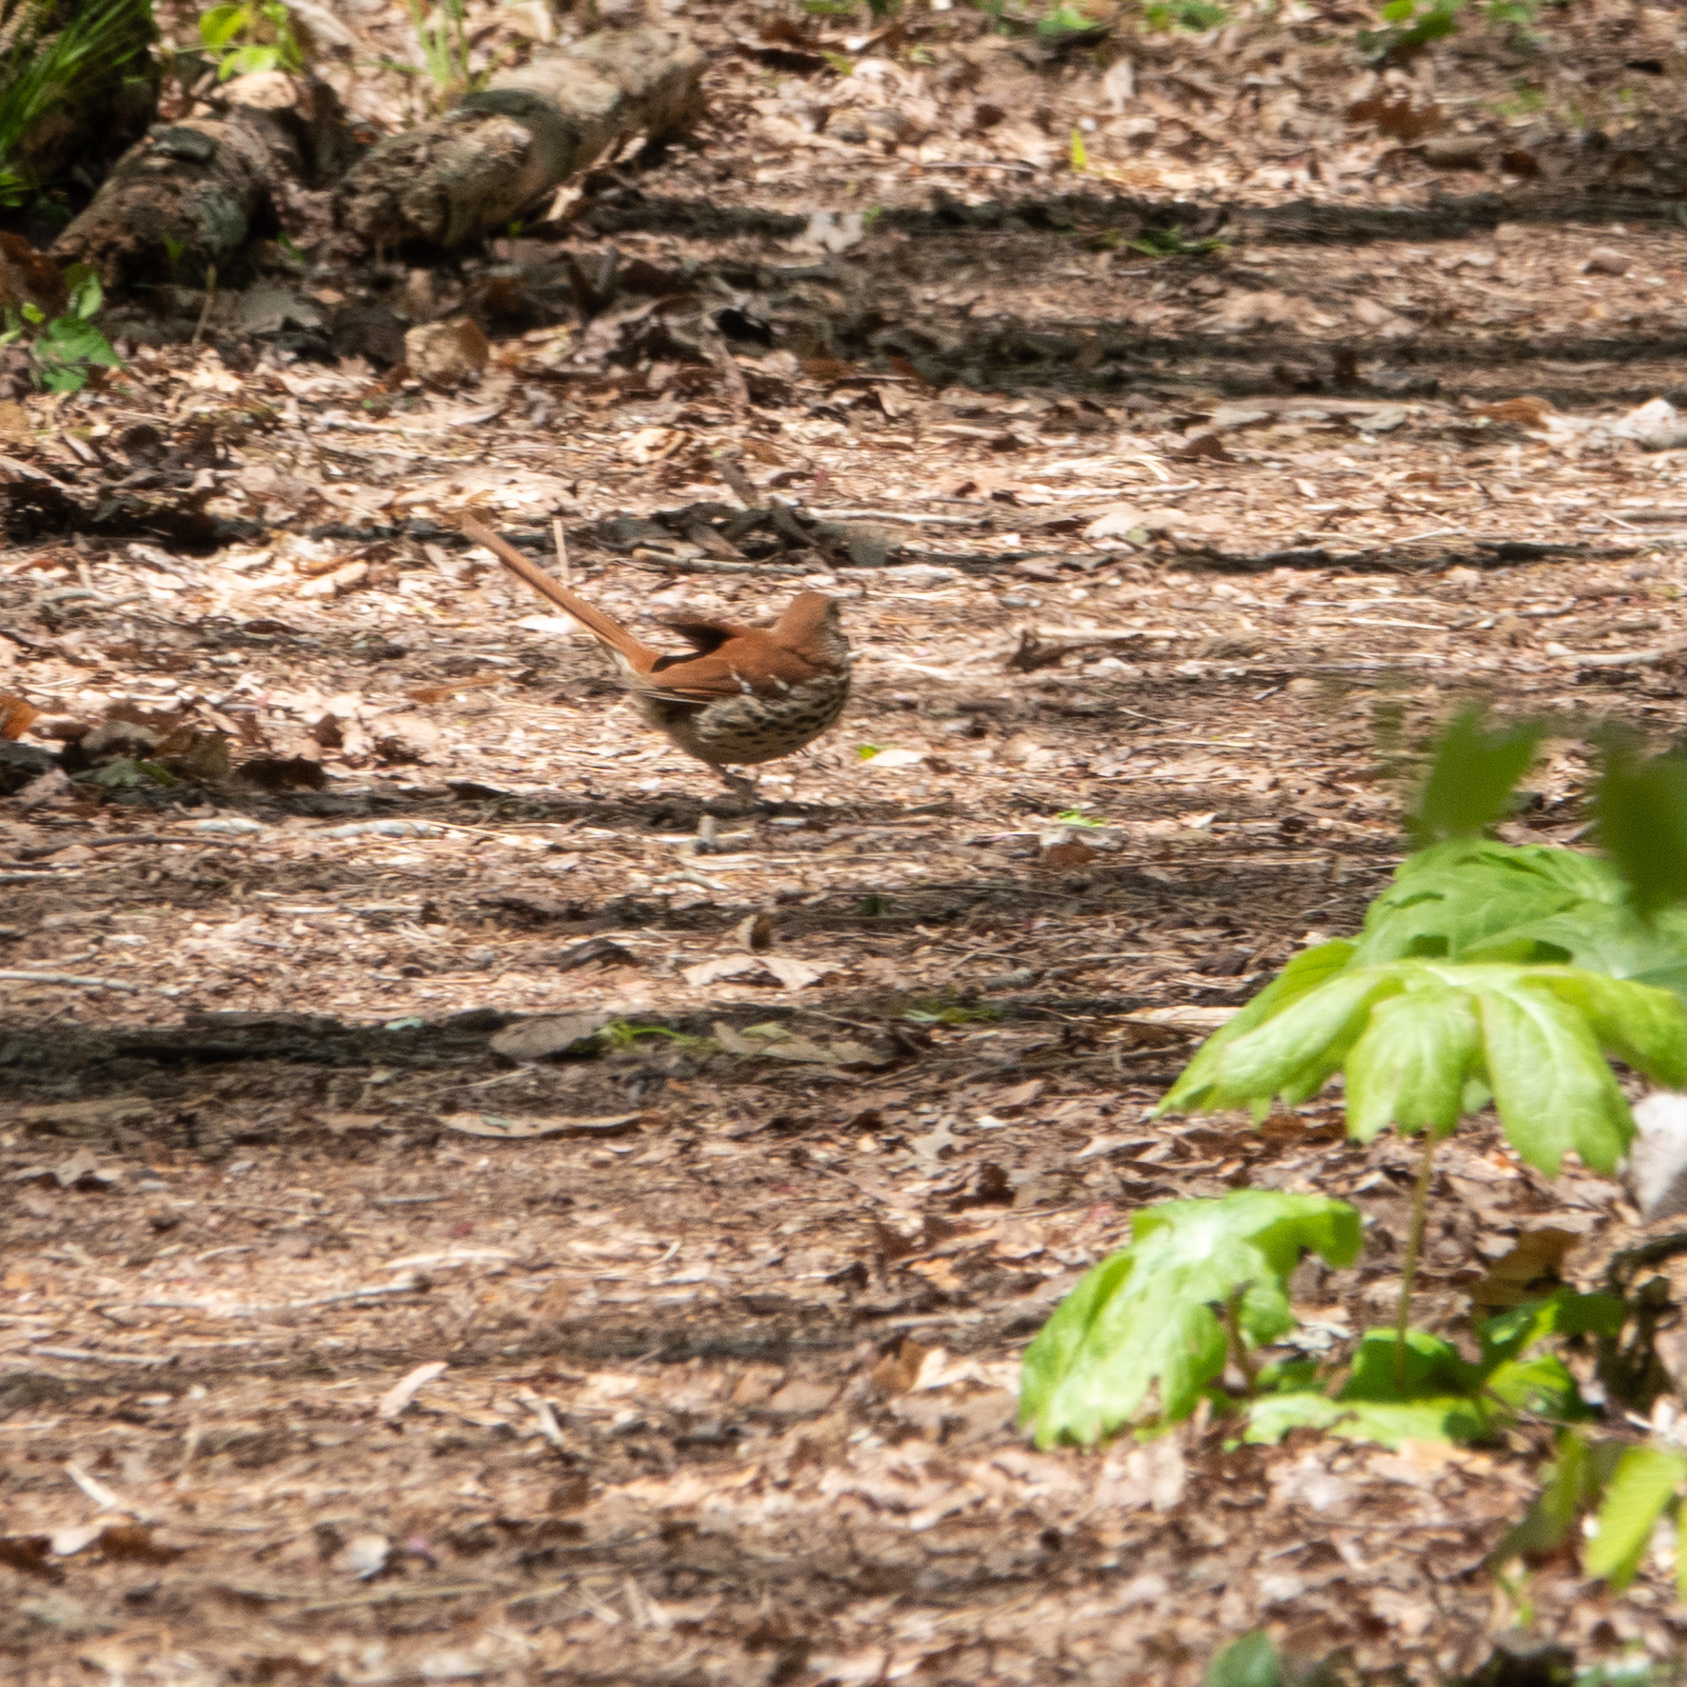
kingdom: Animalia
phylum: Chordata
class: Aves
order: Passeriformes
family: Mimidae
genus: Toxostoma
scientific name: Toxostoma rufum
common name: Brown thrasher
